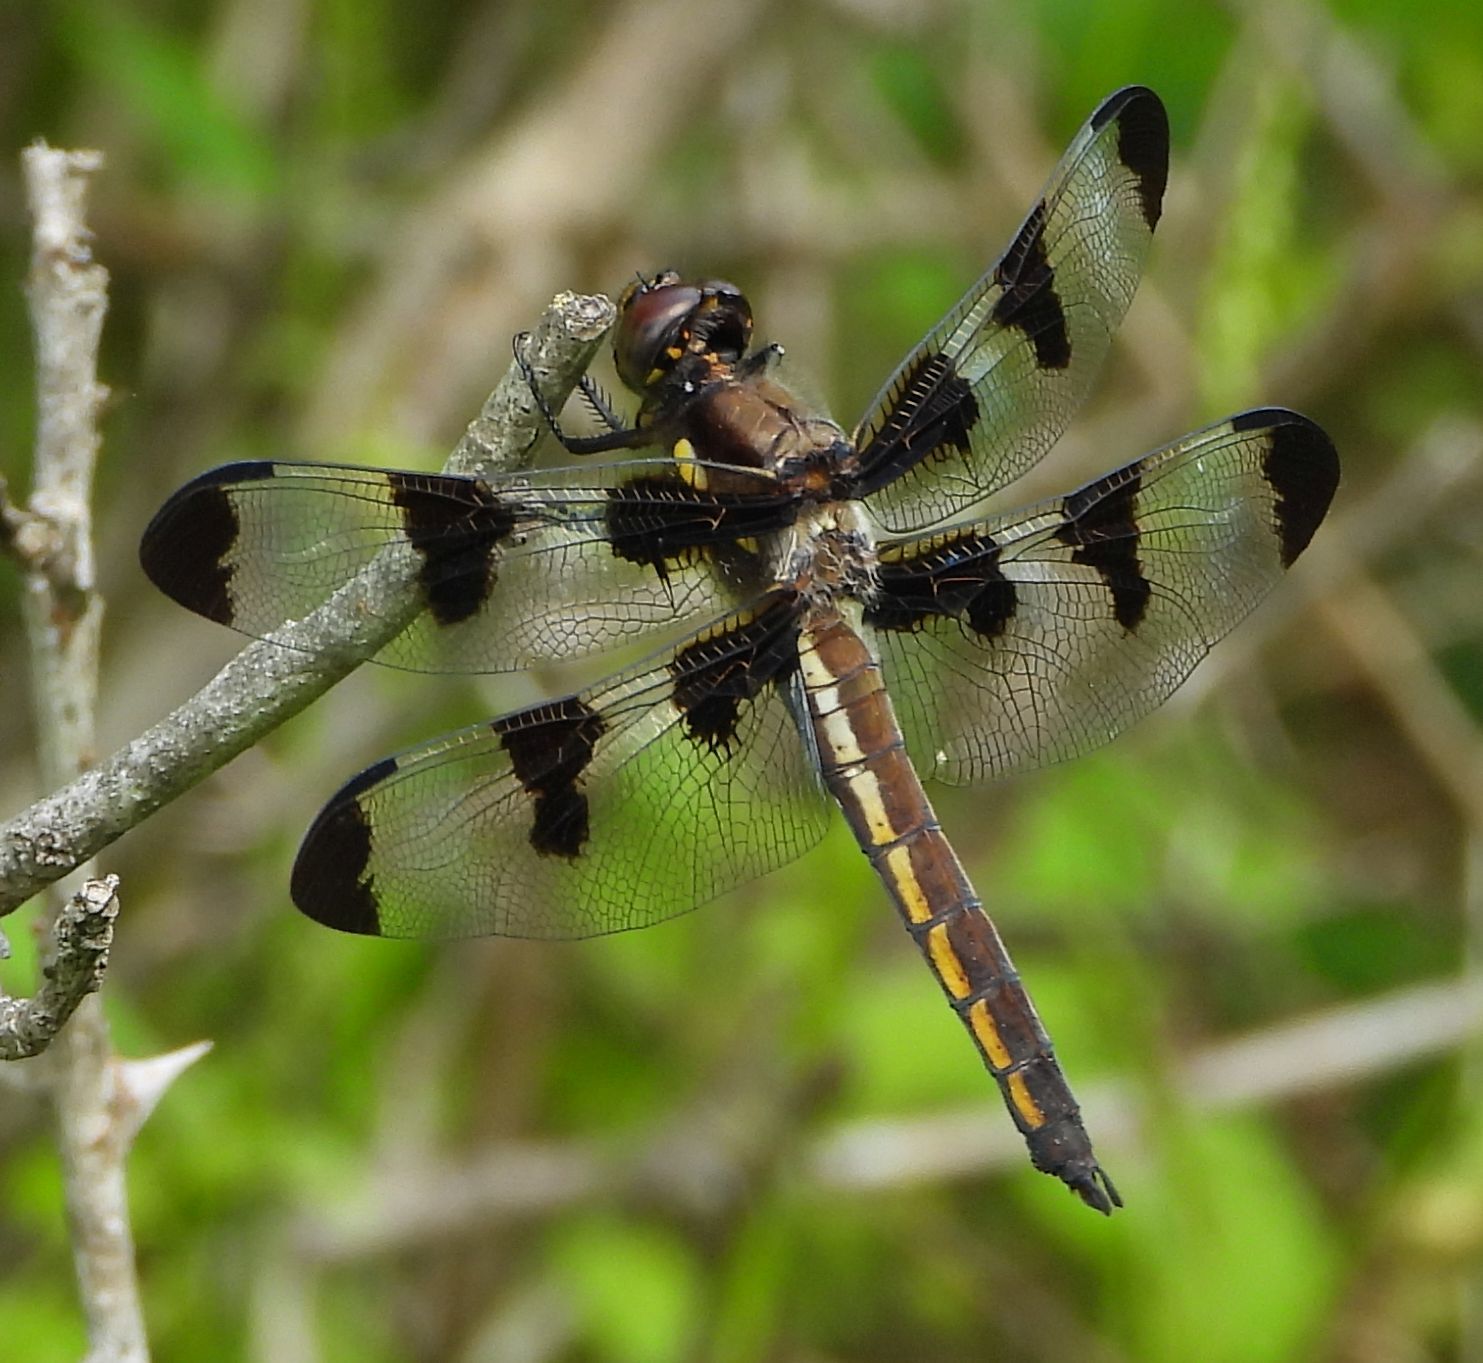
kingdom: Animalia
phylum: Arthropoda
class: Insecta
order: Odonata
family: Libellulidae
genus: Libellula
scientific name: Libellula pulchella
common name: Twelve-spotted skimmer
